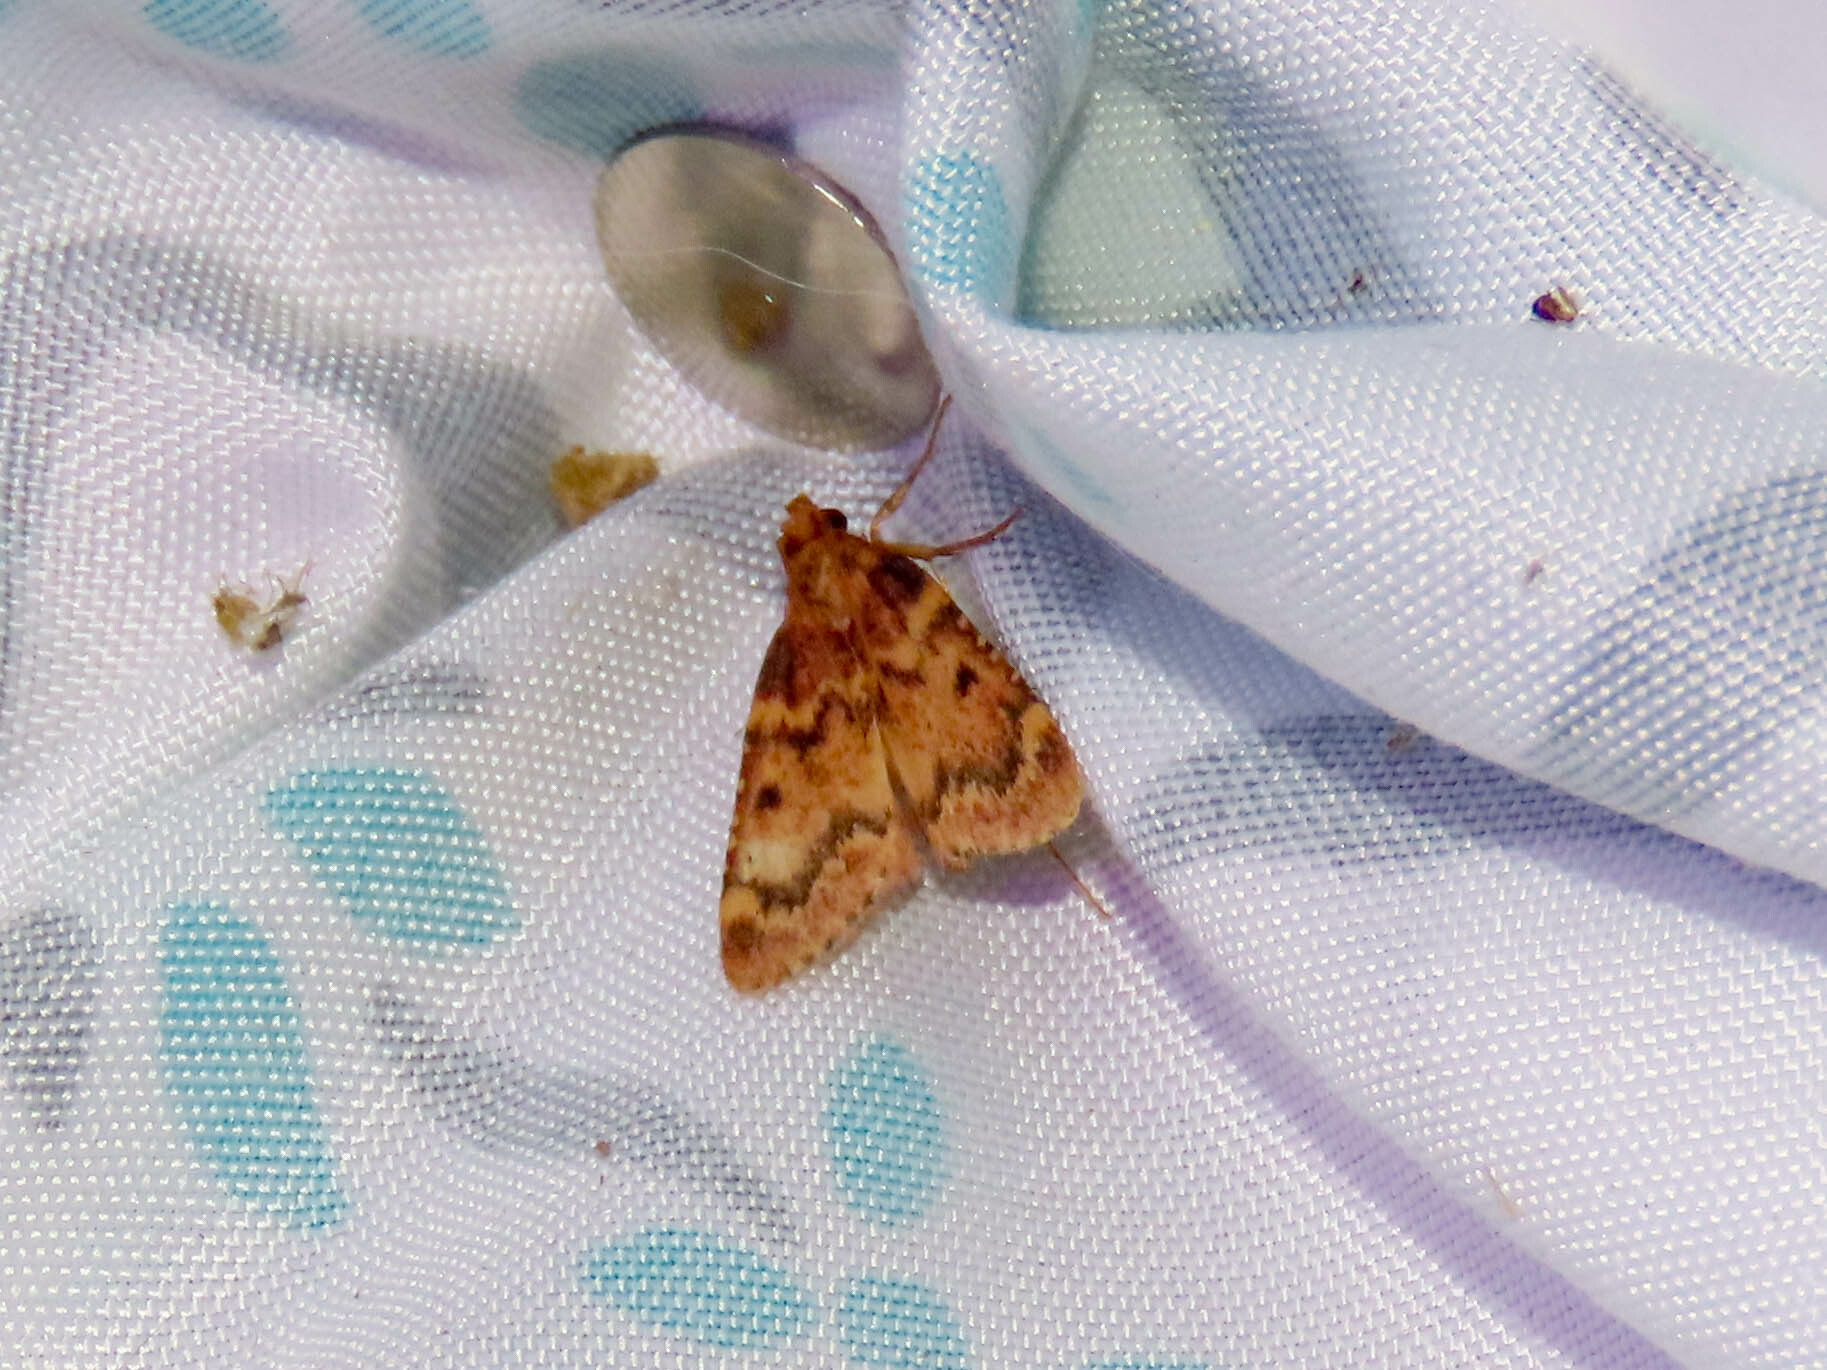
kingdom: Animalia
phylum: Arthropoda
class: Insecta
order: Lepidoptera
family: Pyralidae
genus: Aglossa
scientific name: Aglossa disciferalis
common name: Pink-masked pyralid moth
